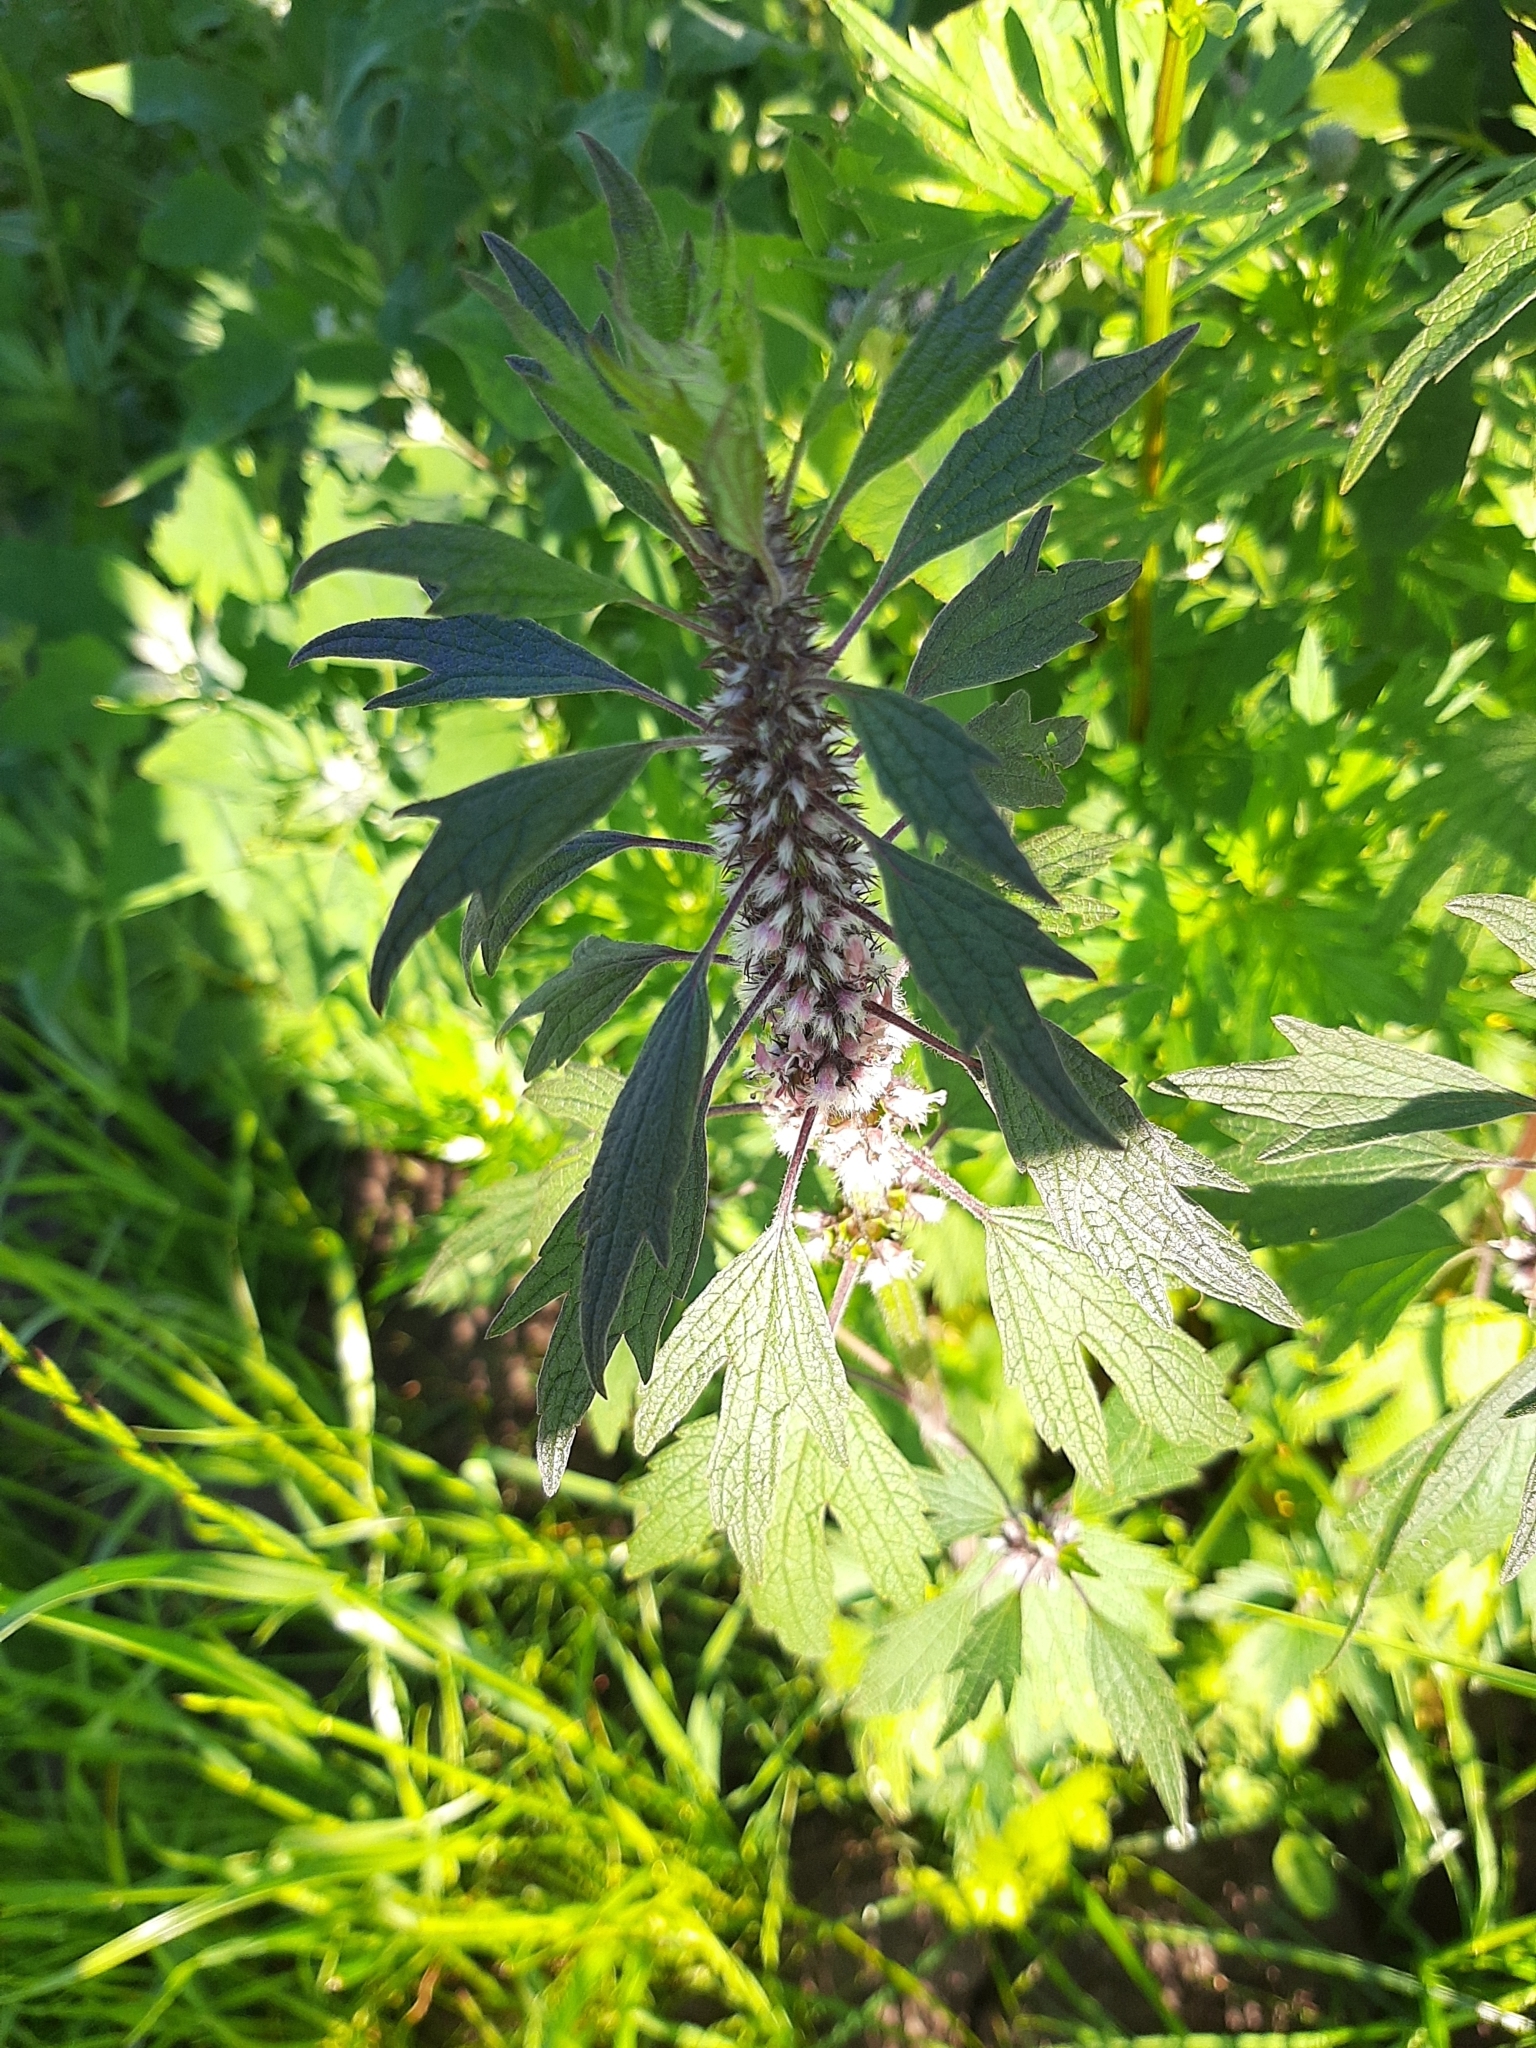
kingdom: Plantae
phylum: Tracheophyta
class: Magnoliopsida
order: Lamiales
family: Lamiaceae
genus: Leonurus
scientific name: Leonurus quinquelobatus
